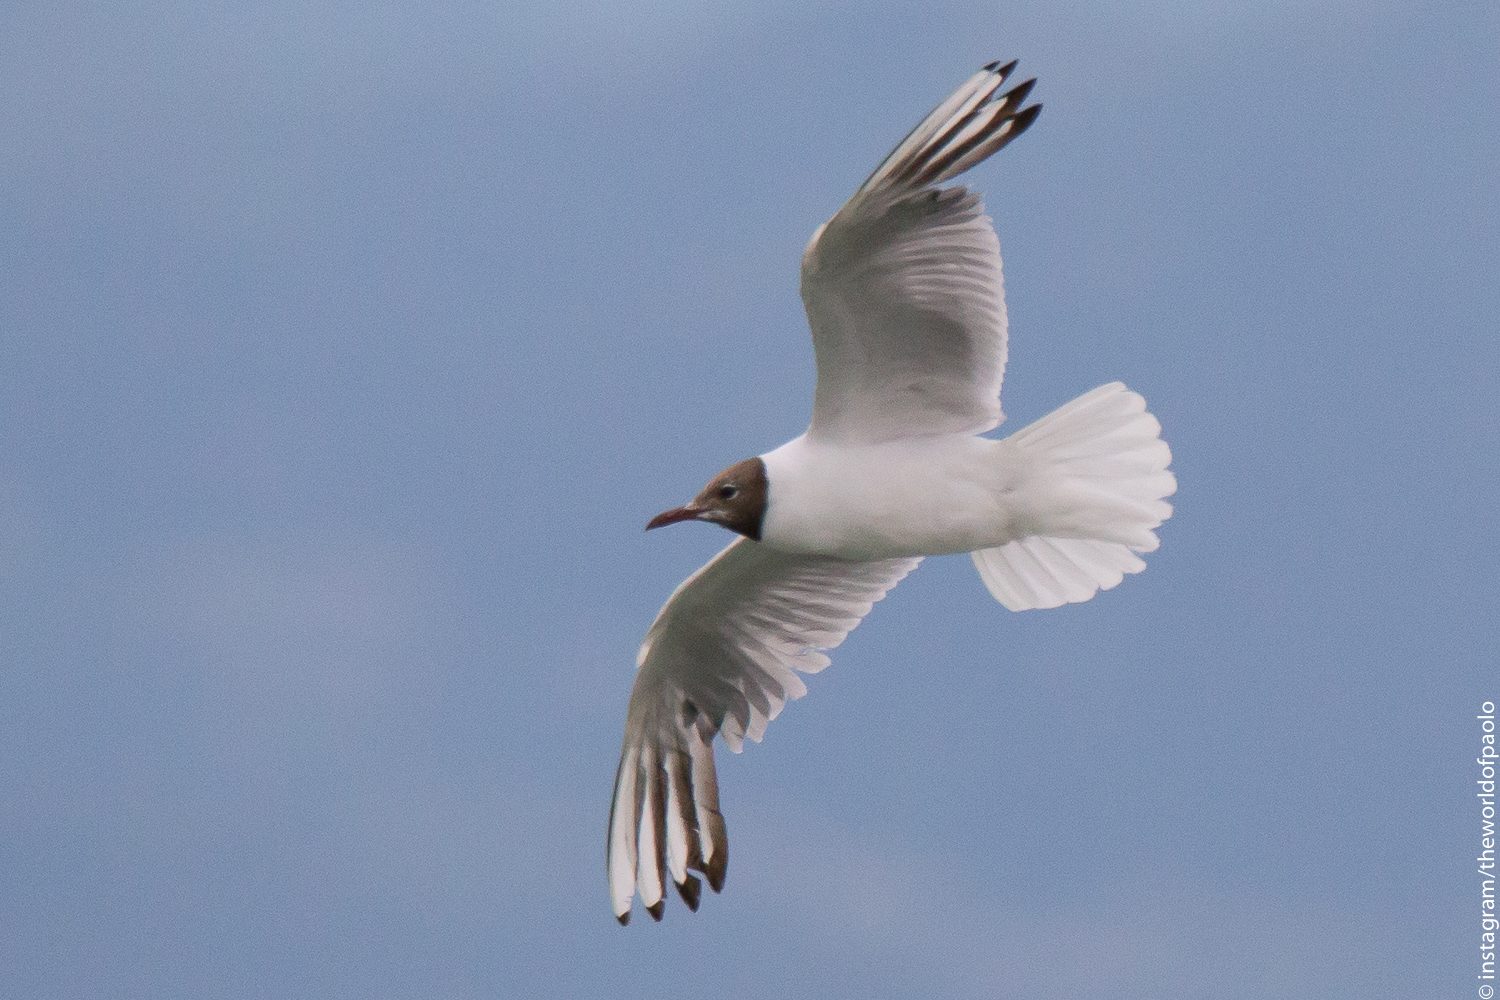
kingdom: Animalia
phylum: Chordata
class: Aves
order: Charadriiformes
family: Laridae
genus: Chroicocephalus
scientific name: Chroicocephalus ridibundus
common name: Black-headed gull
